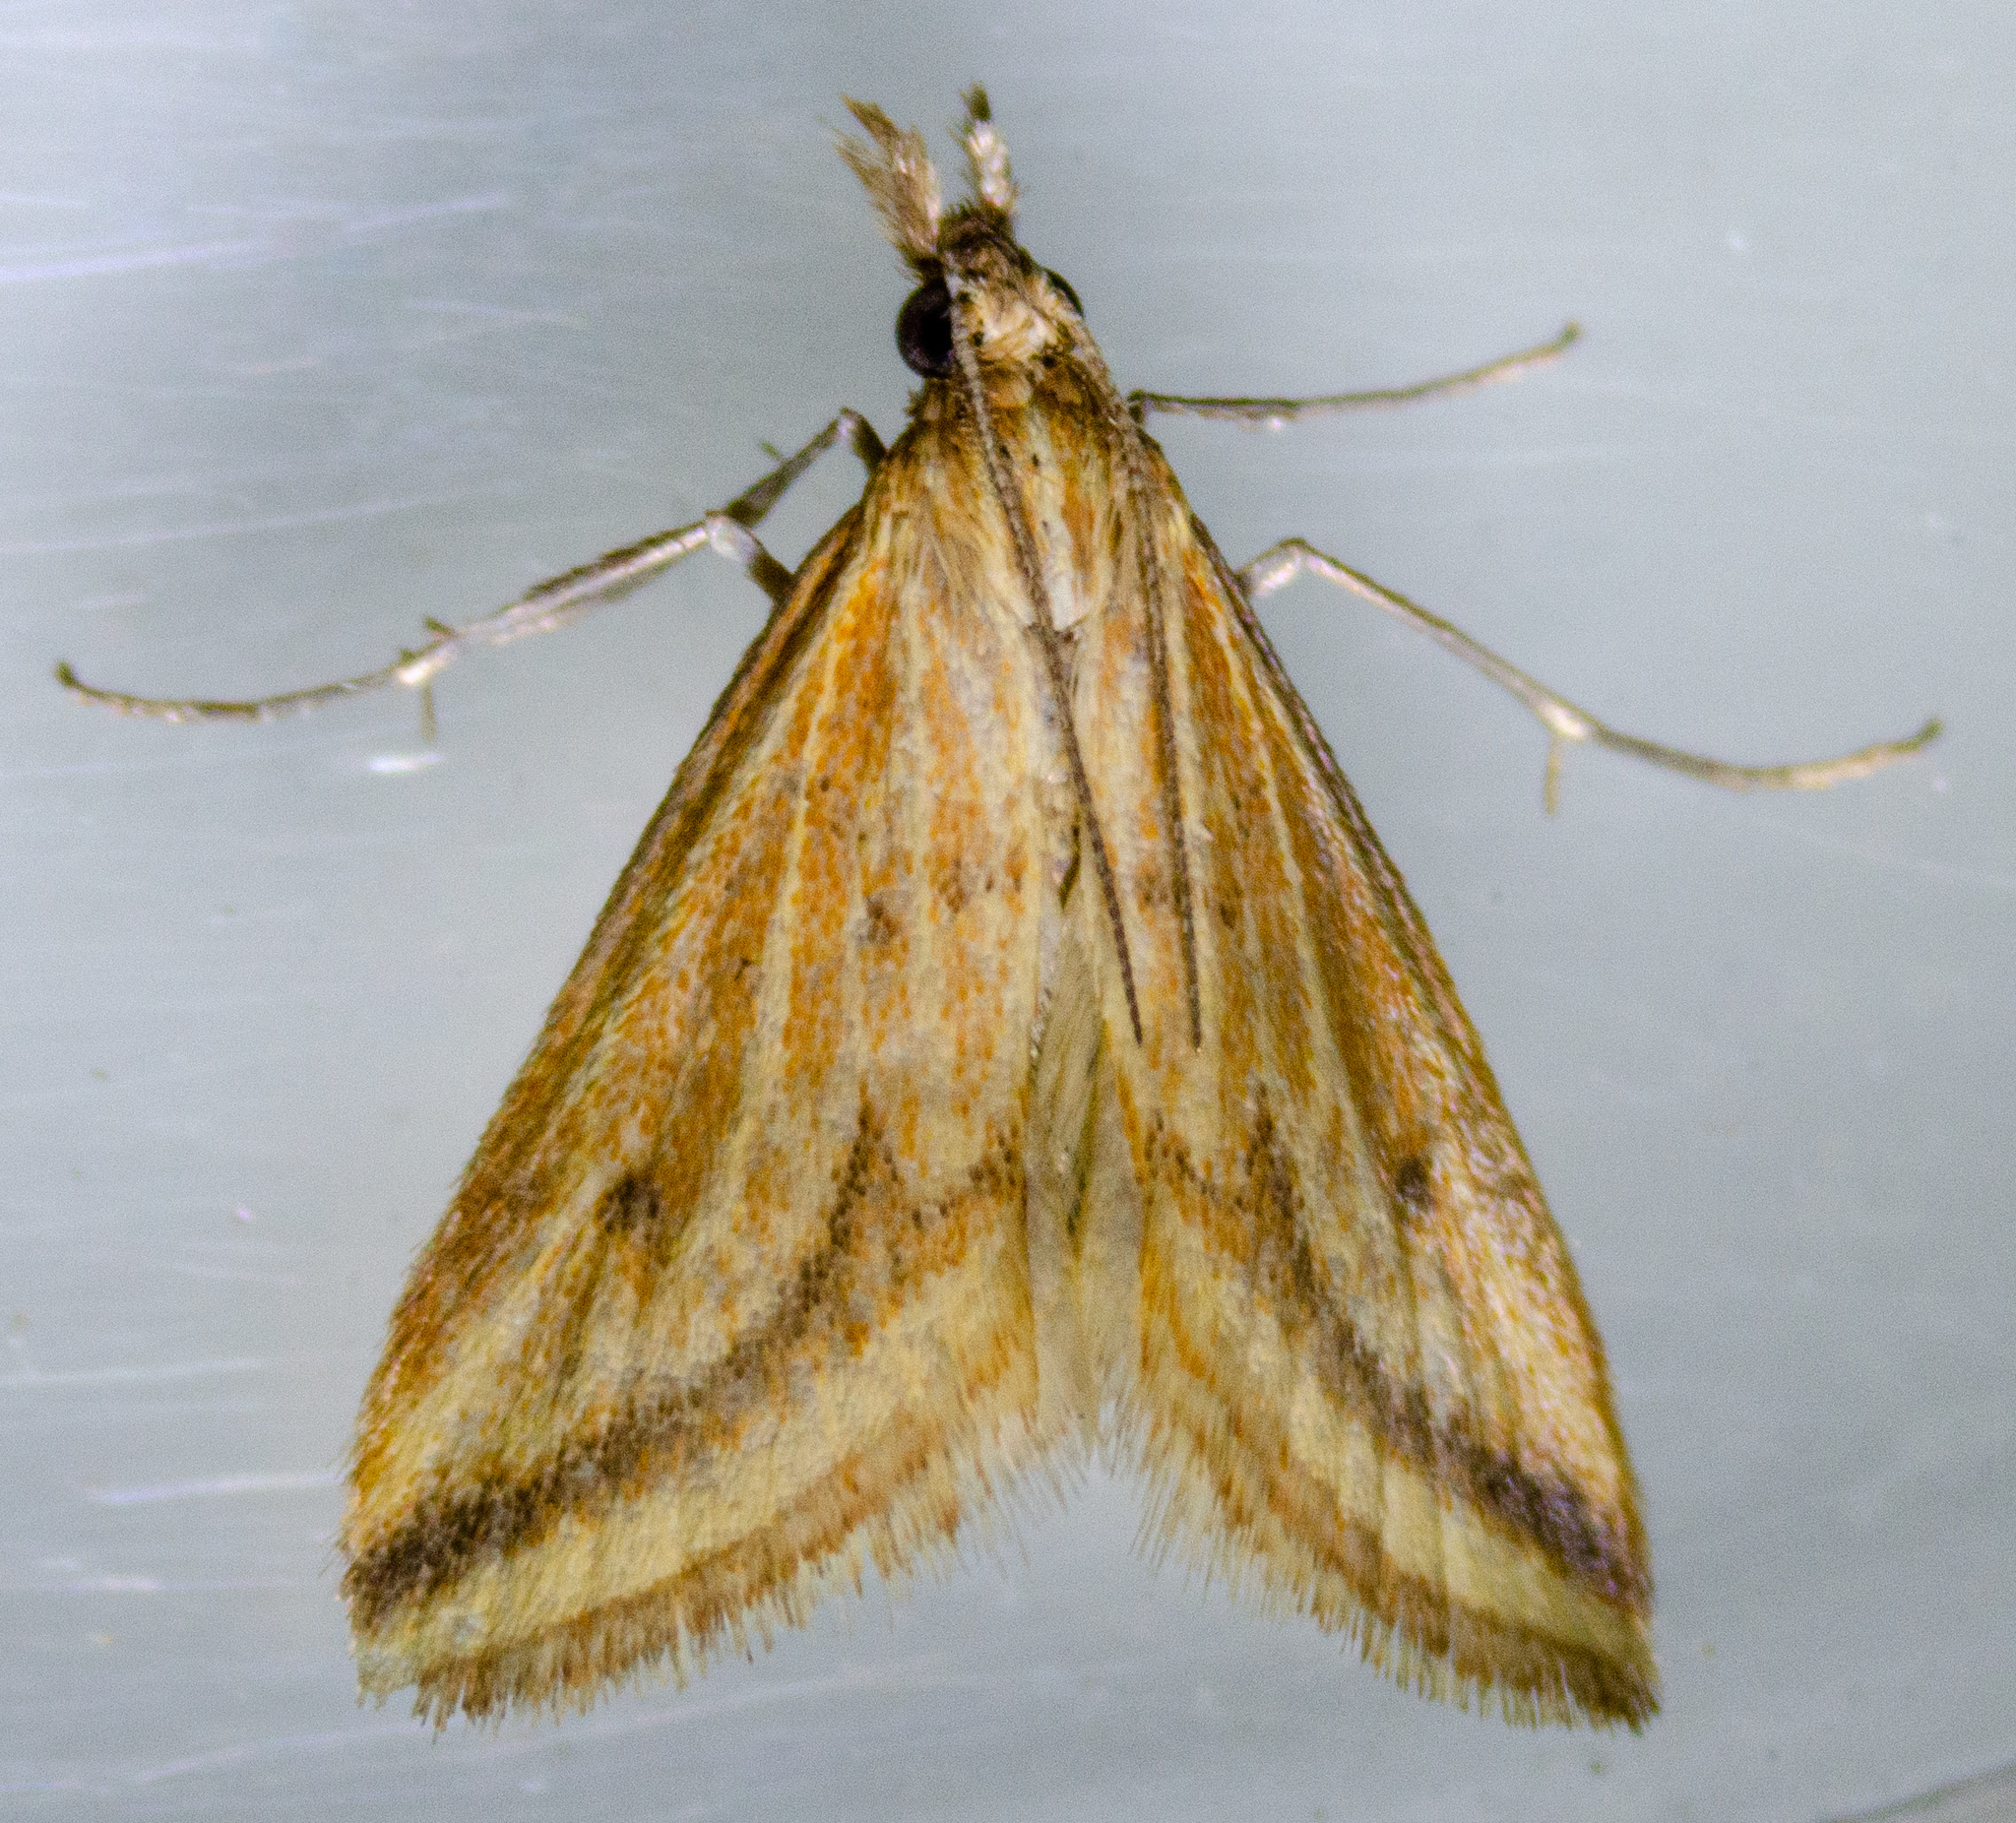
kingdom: Animalia
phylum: Arthropoda
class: Insecta
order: Lepidoptera
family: Crambidae
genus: Microtheoris
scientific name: Microtheoris ophionalis
